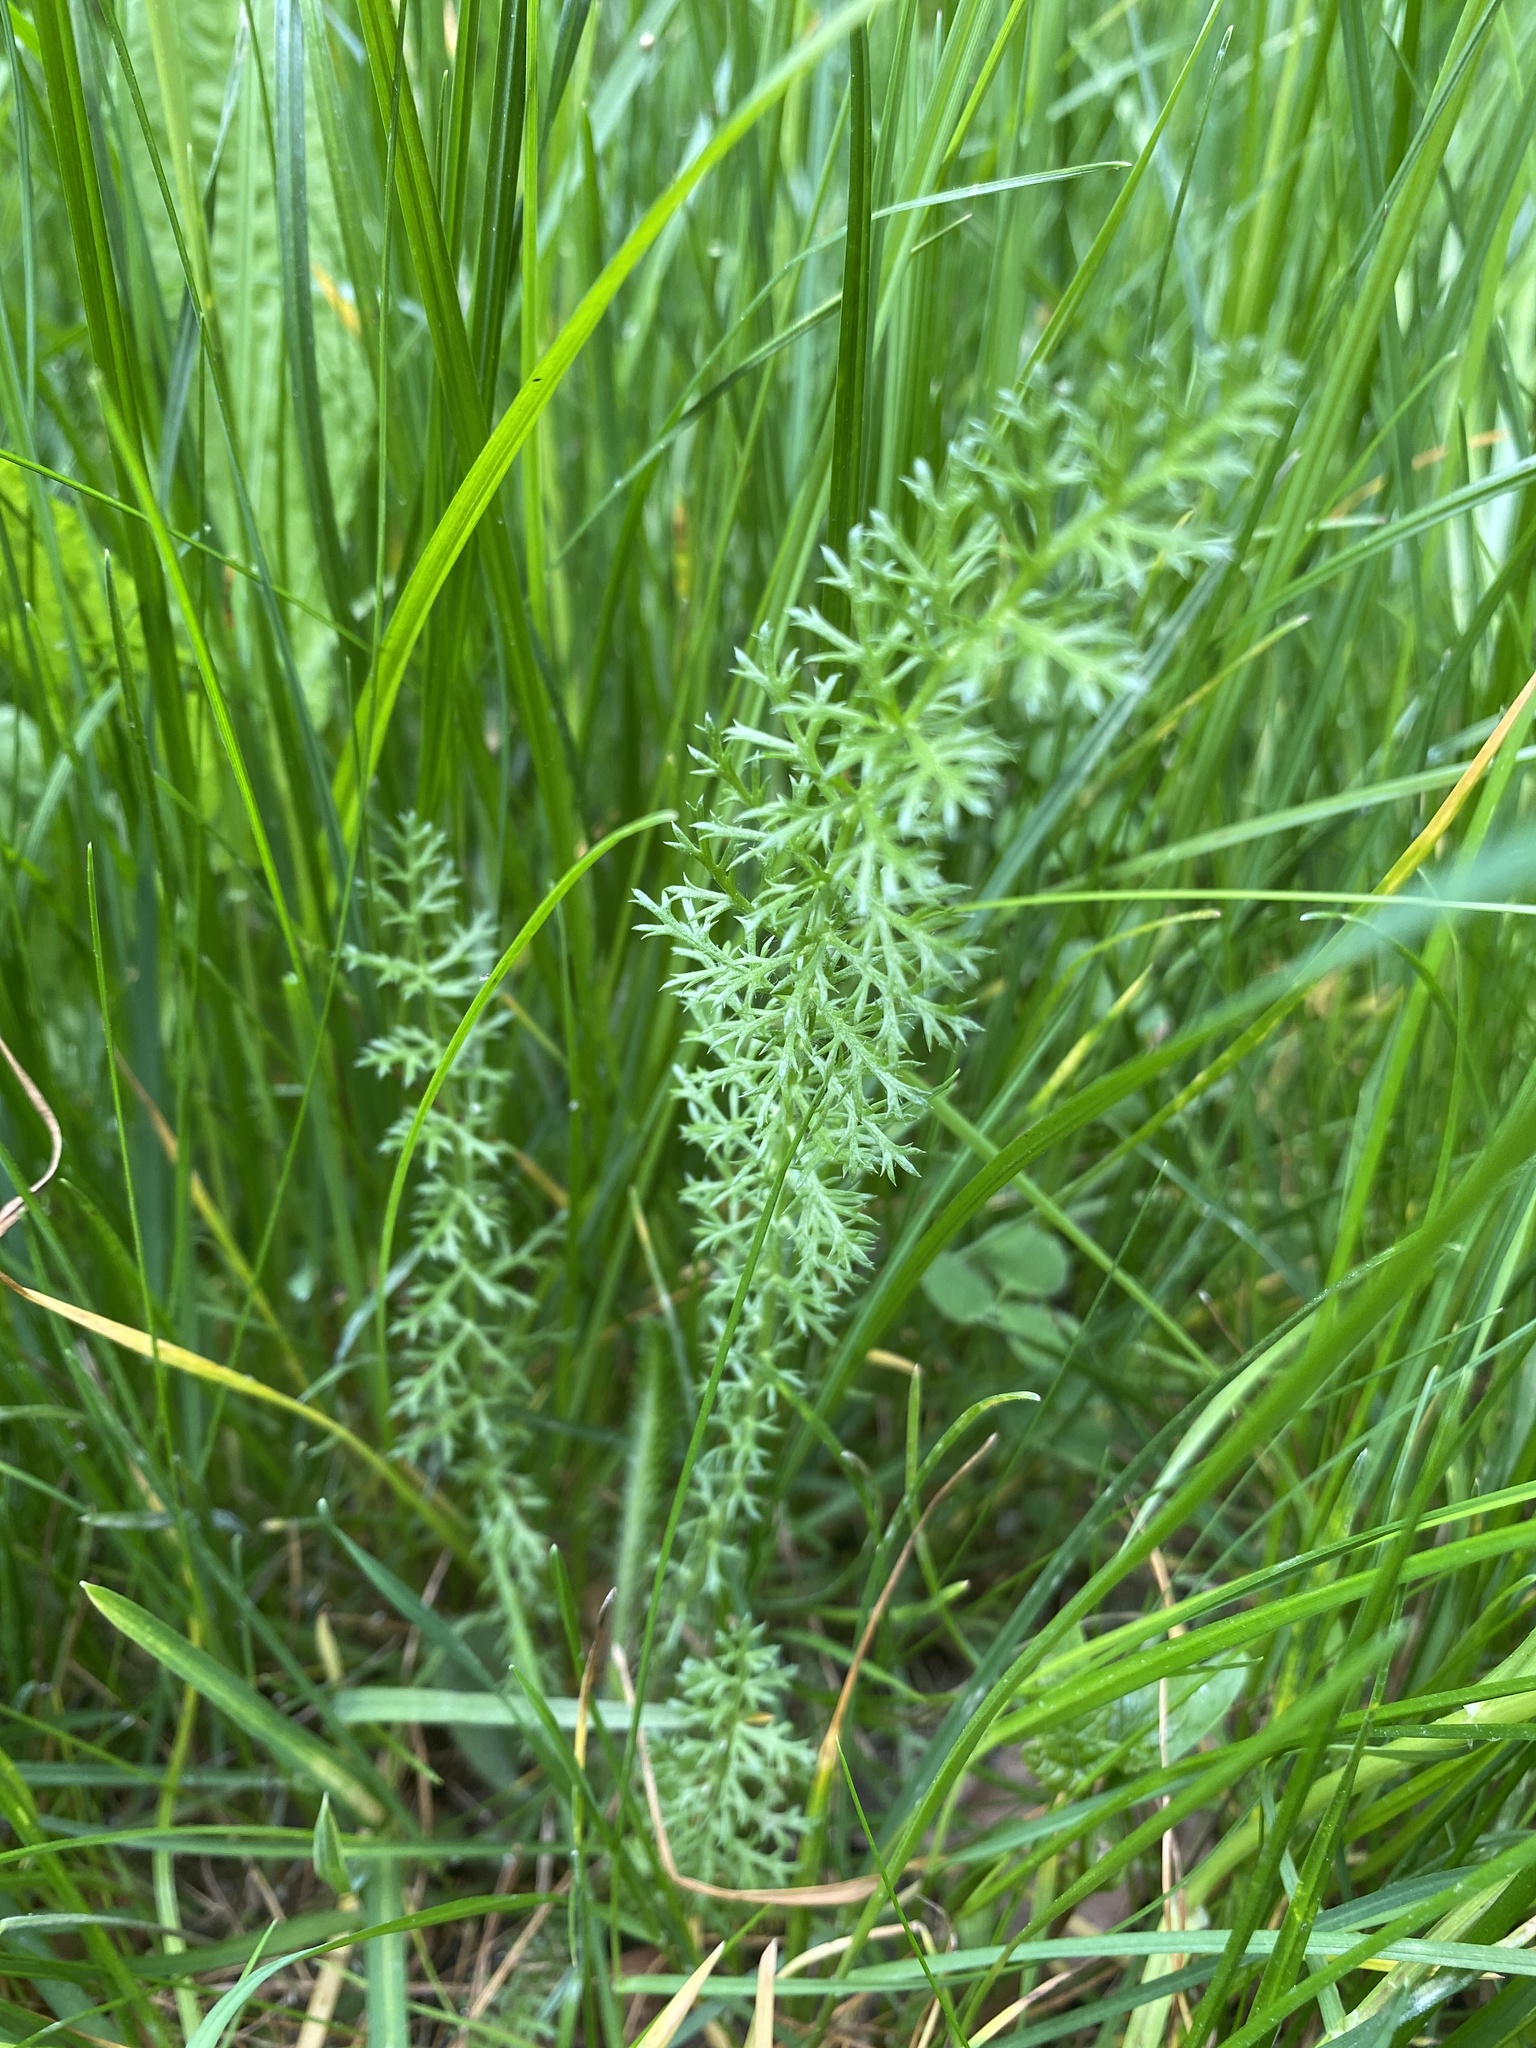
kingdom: Plantae
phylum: Tracheophyta
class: Magnoliopsida
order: Asterales
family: Asteraceae
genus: Achillea
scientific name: Achillea millefolium
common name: Yarrow
